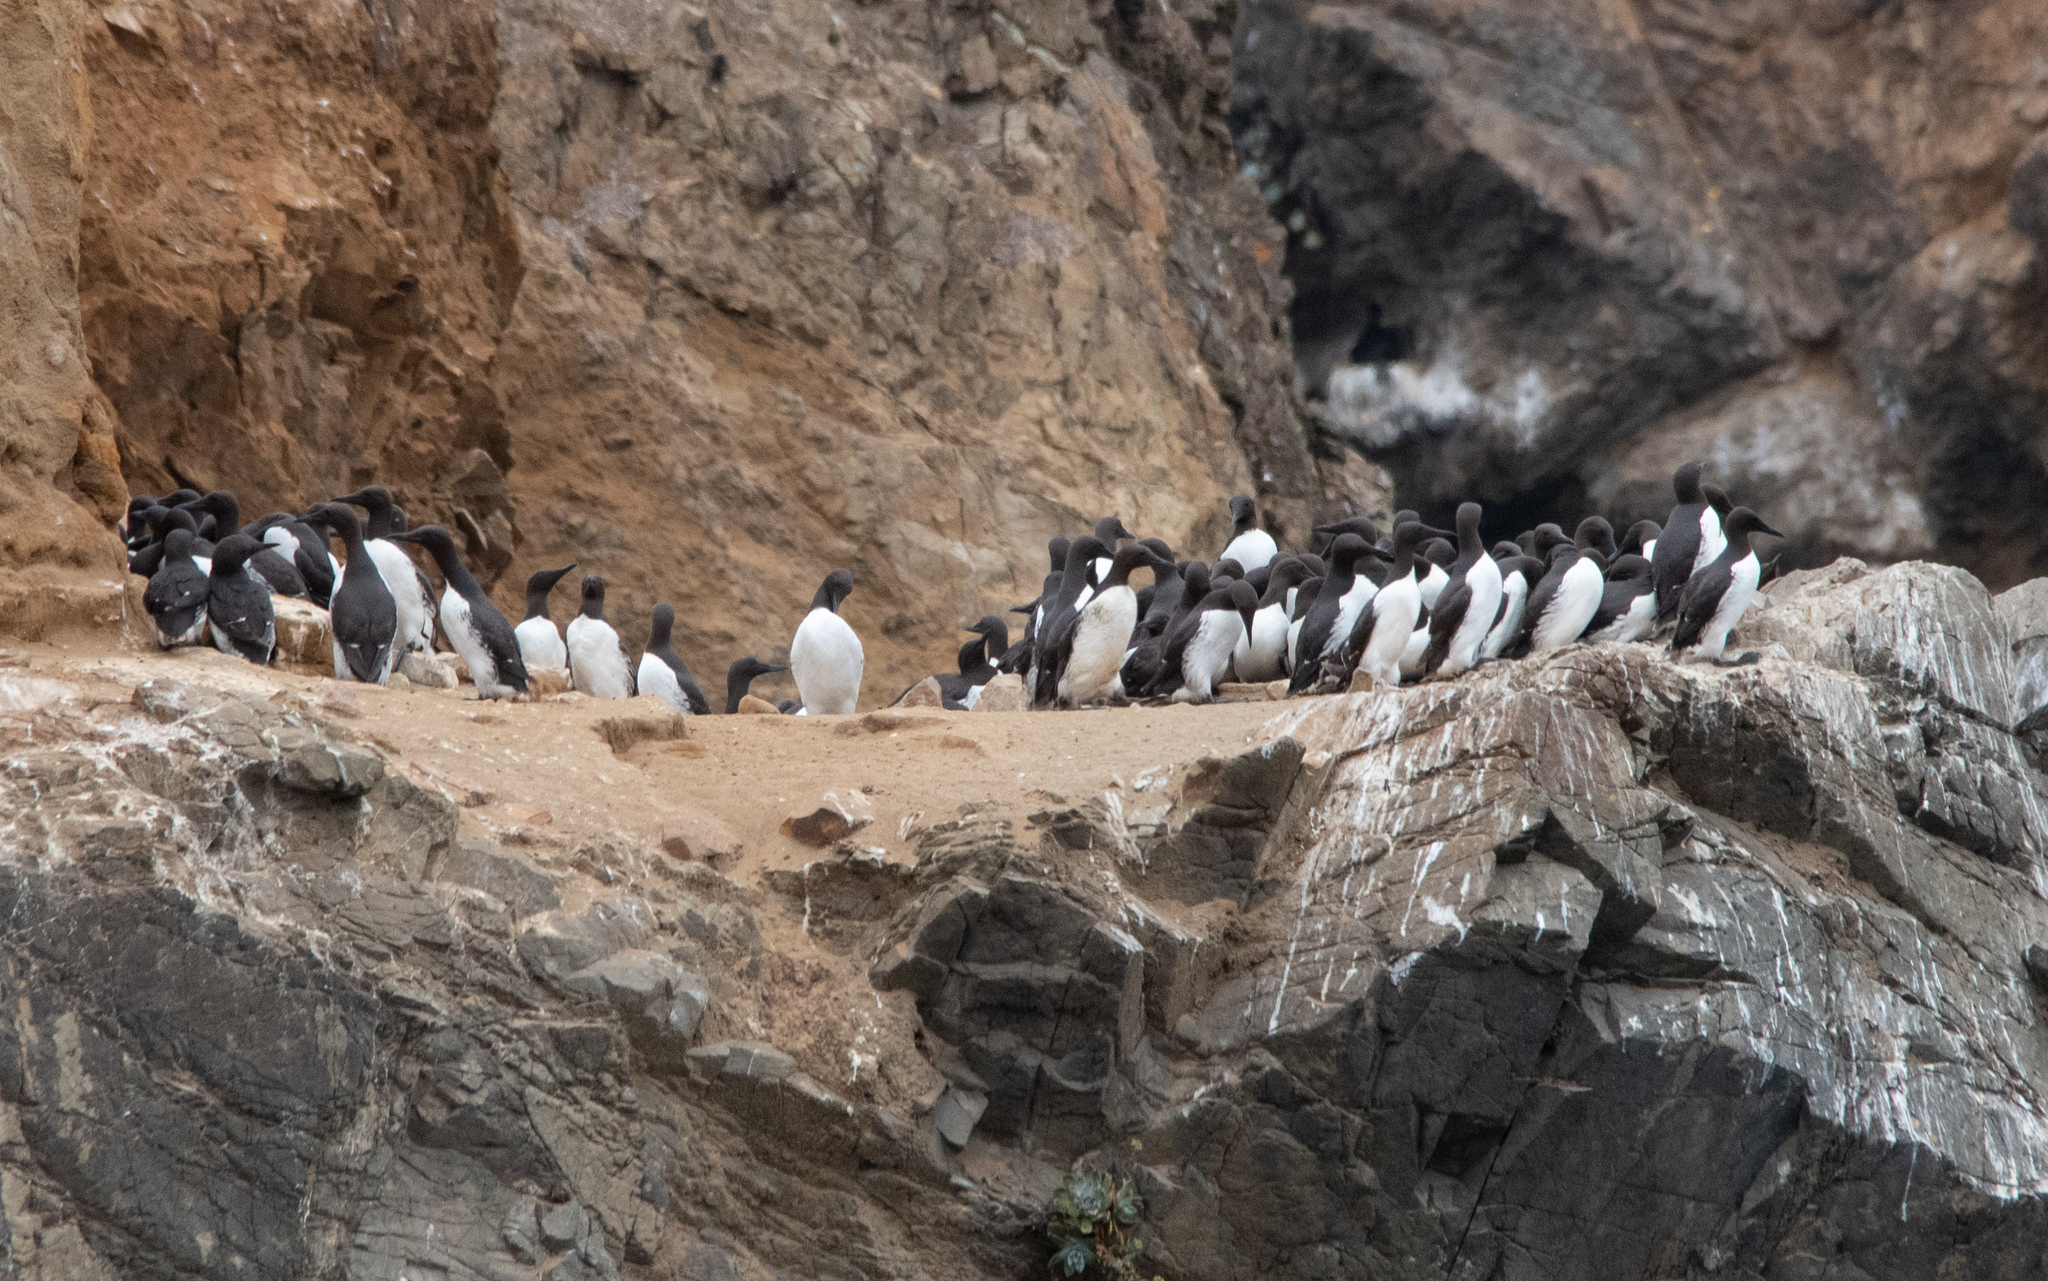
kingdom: Animalia
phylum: Chordata
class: Aves
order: Charadriiformes
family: Alcidae
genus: Uria
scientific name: Uria aalge
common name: Common murre
